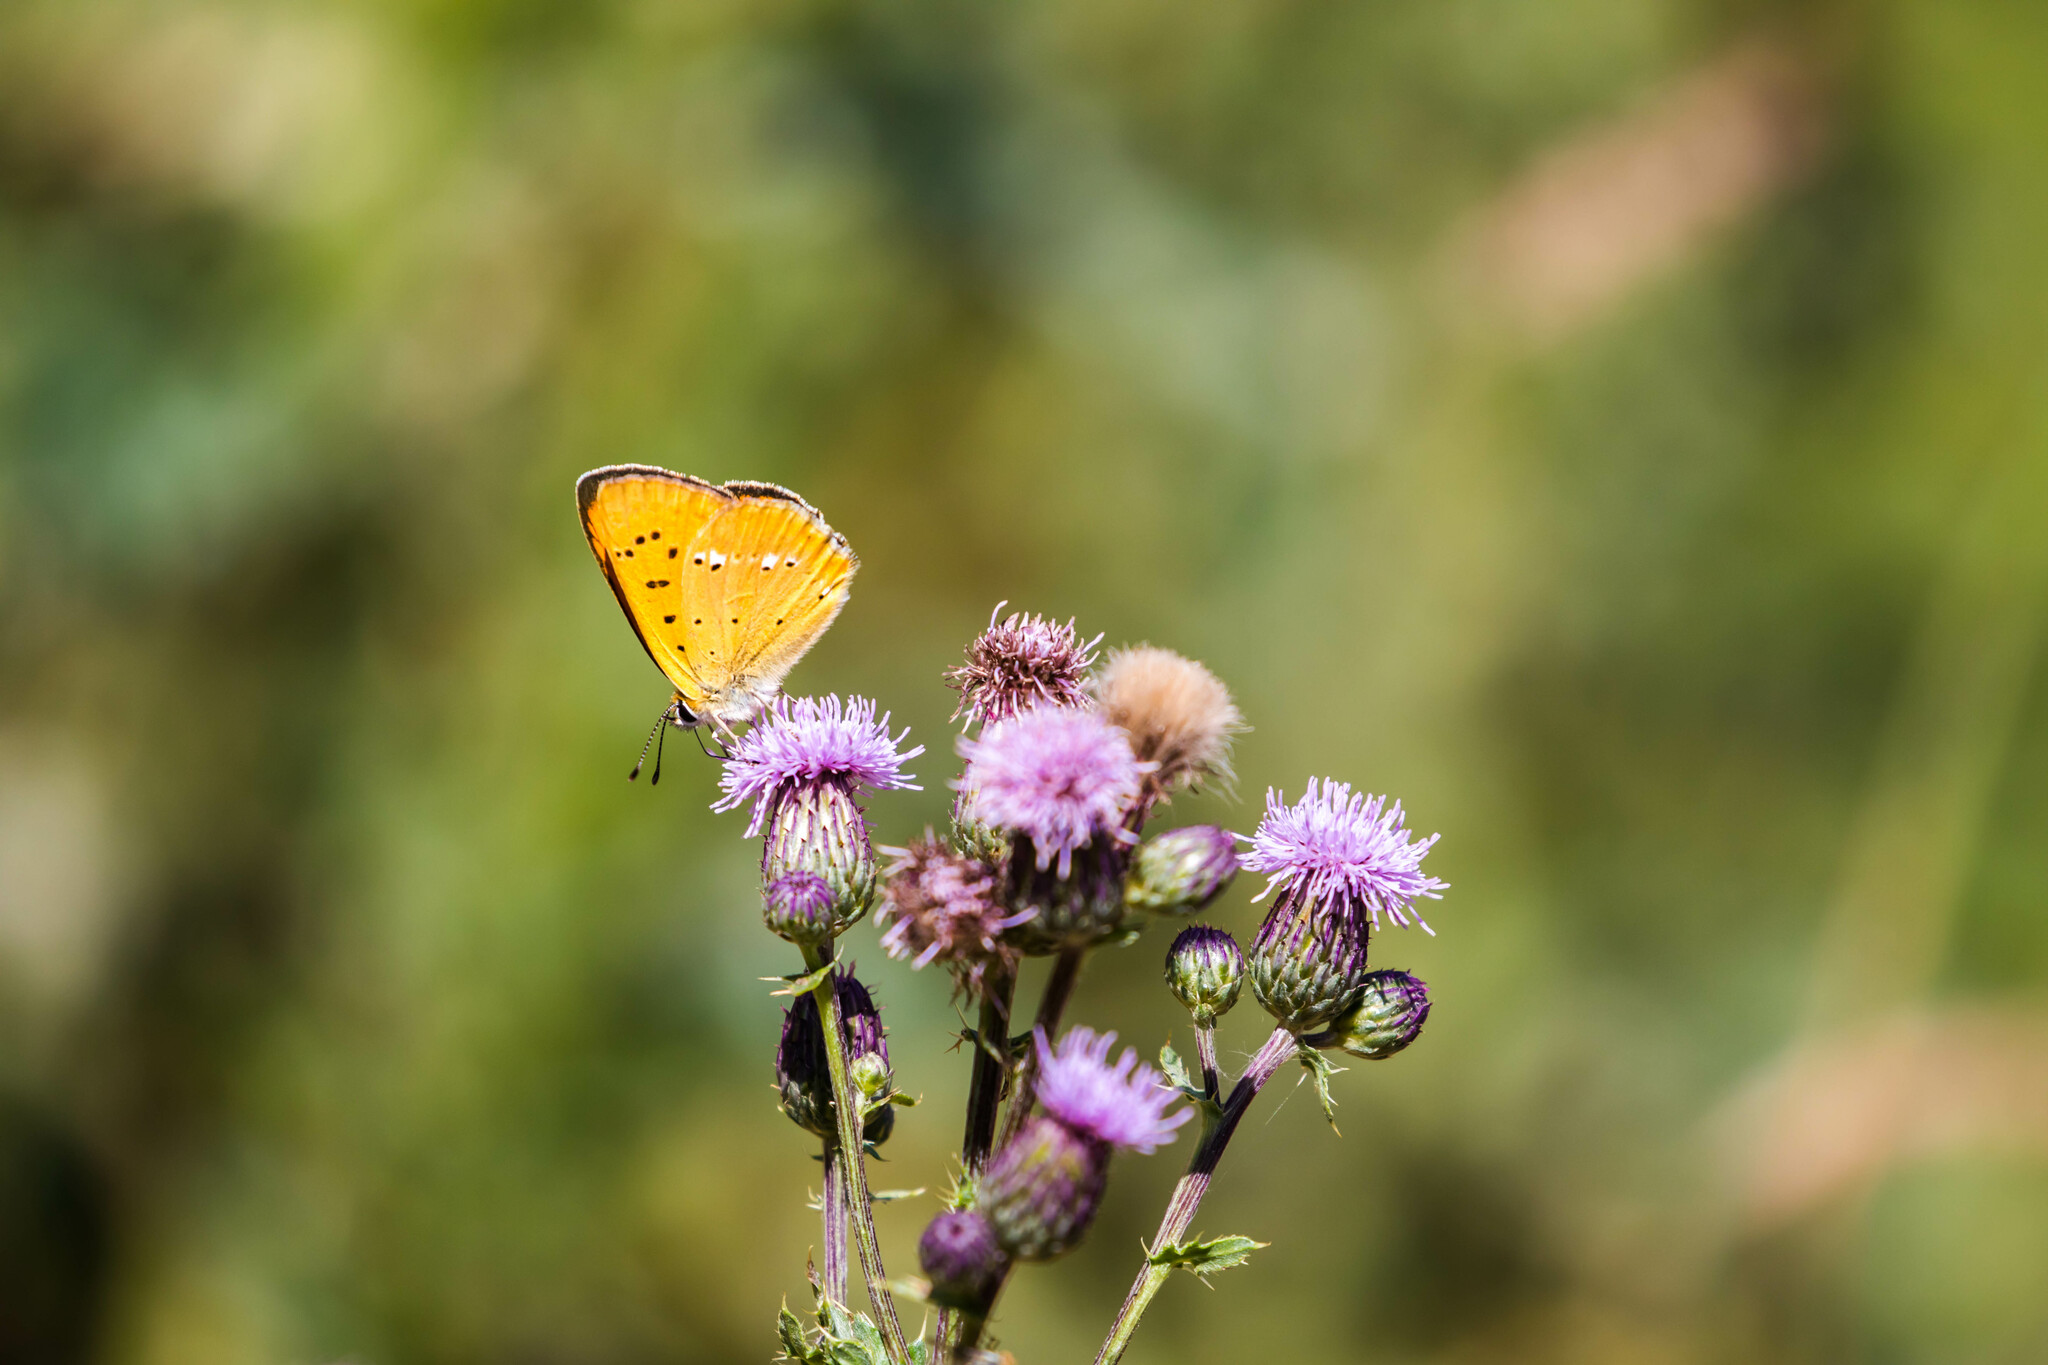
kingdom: Animalia
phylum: Arthropoda
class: Insecta
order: Lepidoptera
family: Lycaenidae
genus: Lycaena
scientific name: Lycaena virgaureae
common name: Scarce copper
